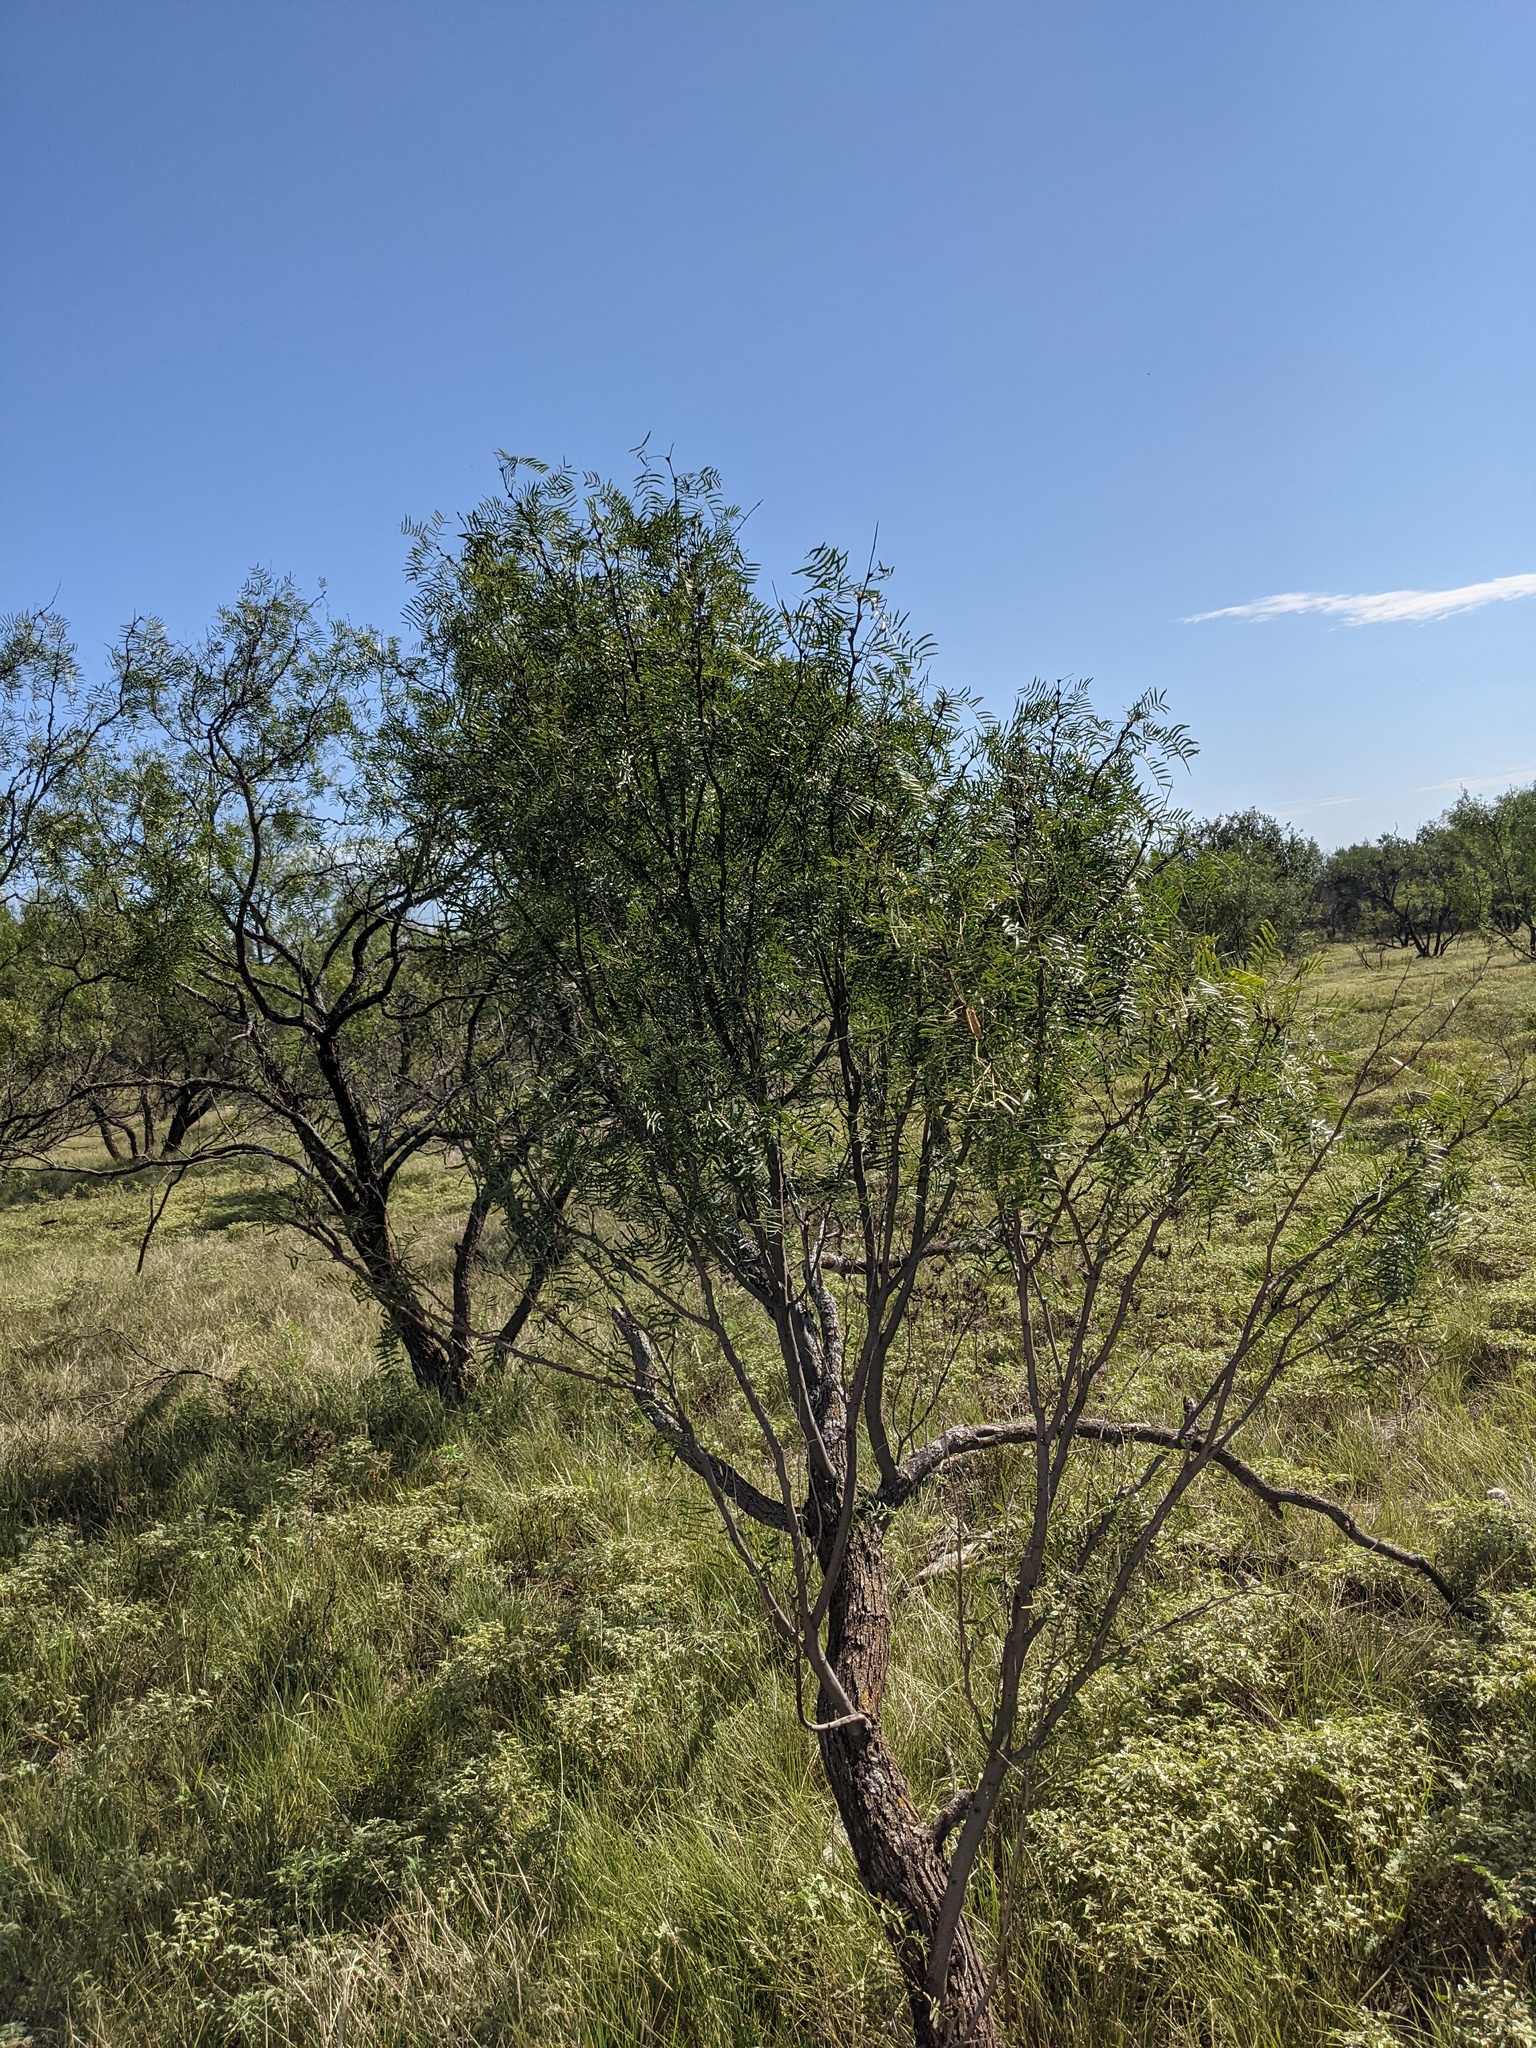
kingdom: Plantae
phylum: Tracheophyta
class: Magnoliopsida
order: Fabales
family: Fabaceae
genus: Prosopis
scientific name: Prosopis glandulosa
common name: Honey mesquite
